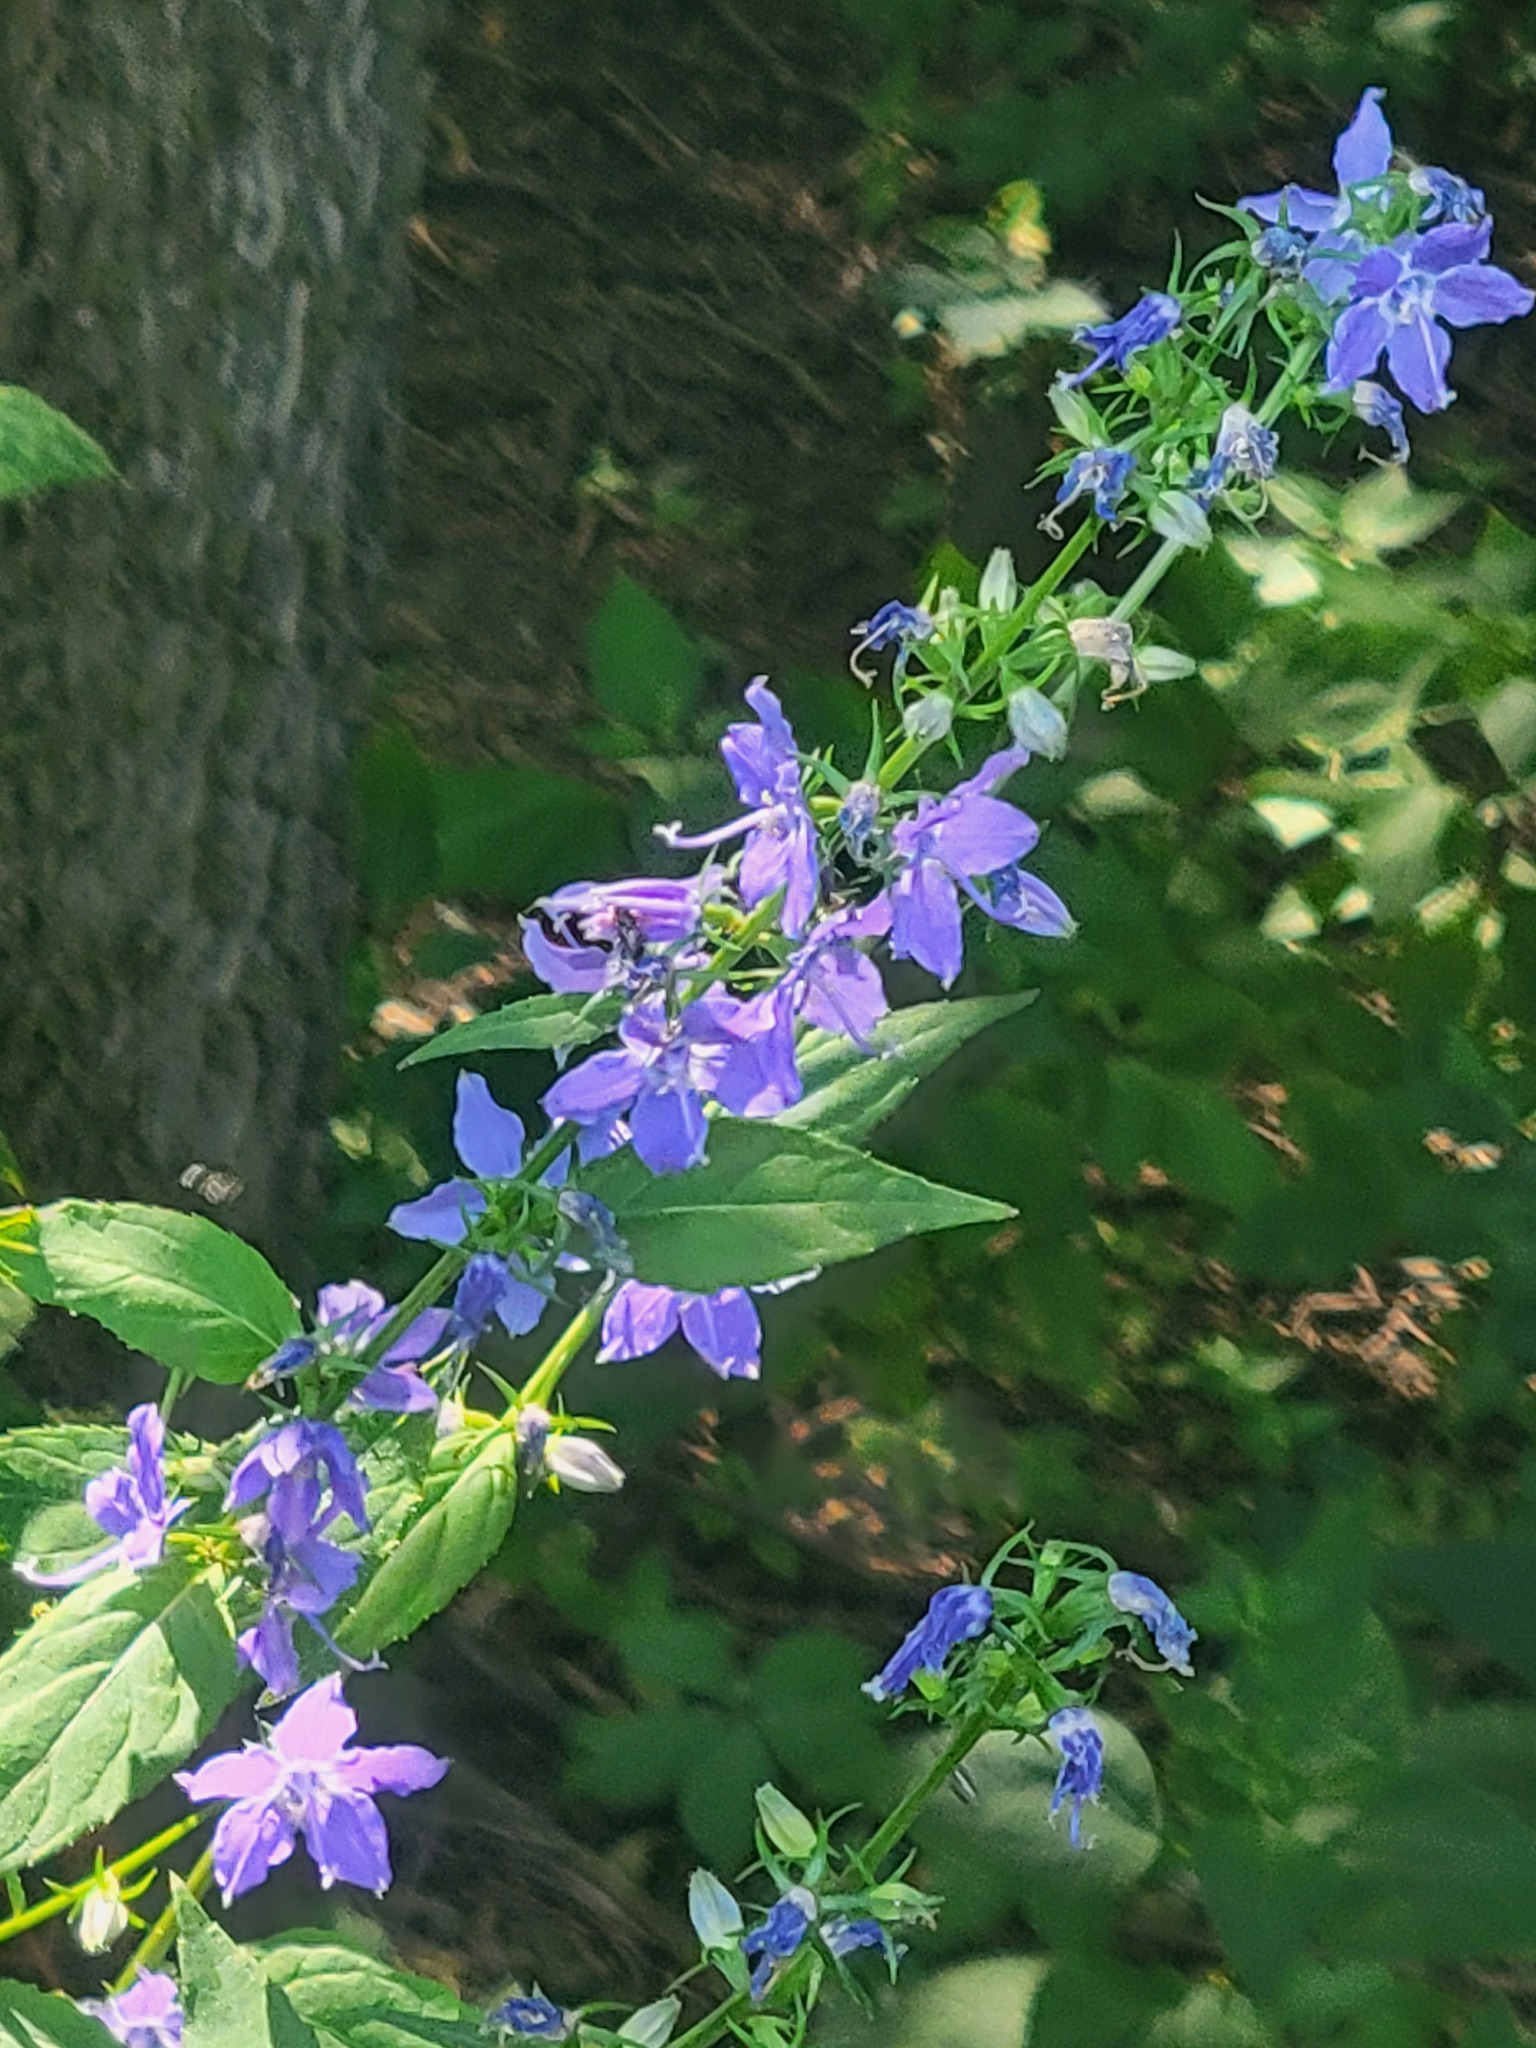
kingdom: Plantae
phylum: Tracheophyta
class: Magnoliopsida
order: Asterales
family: Campanulaceae
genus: Campanulastrum
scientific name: Campanulastrum americanum
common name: American bellflower
